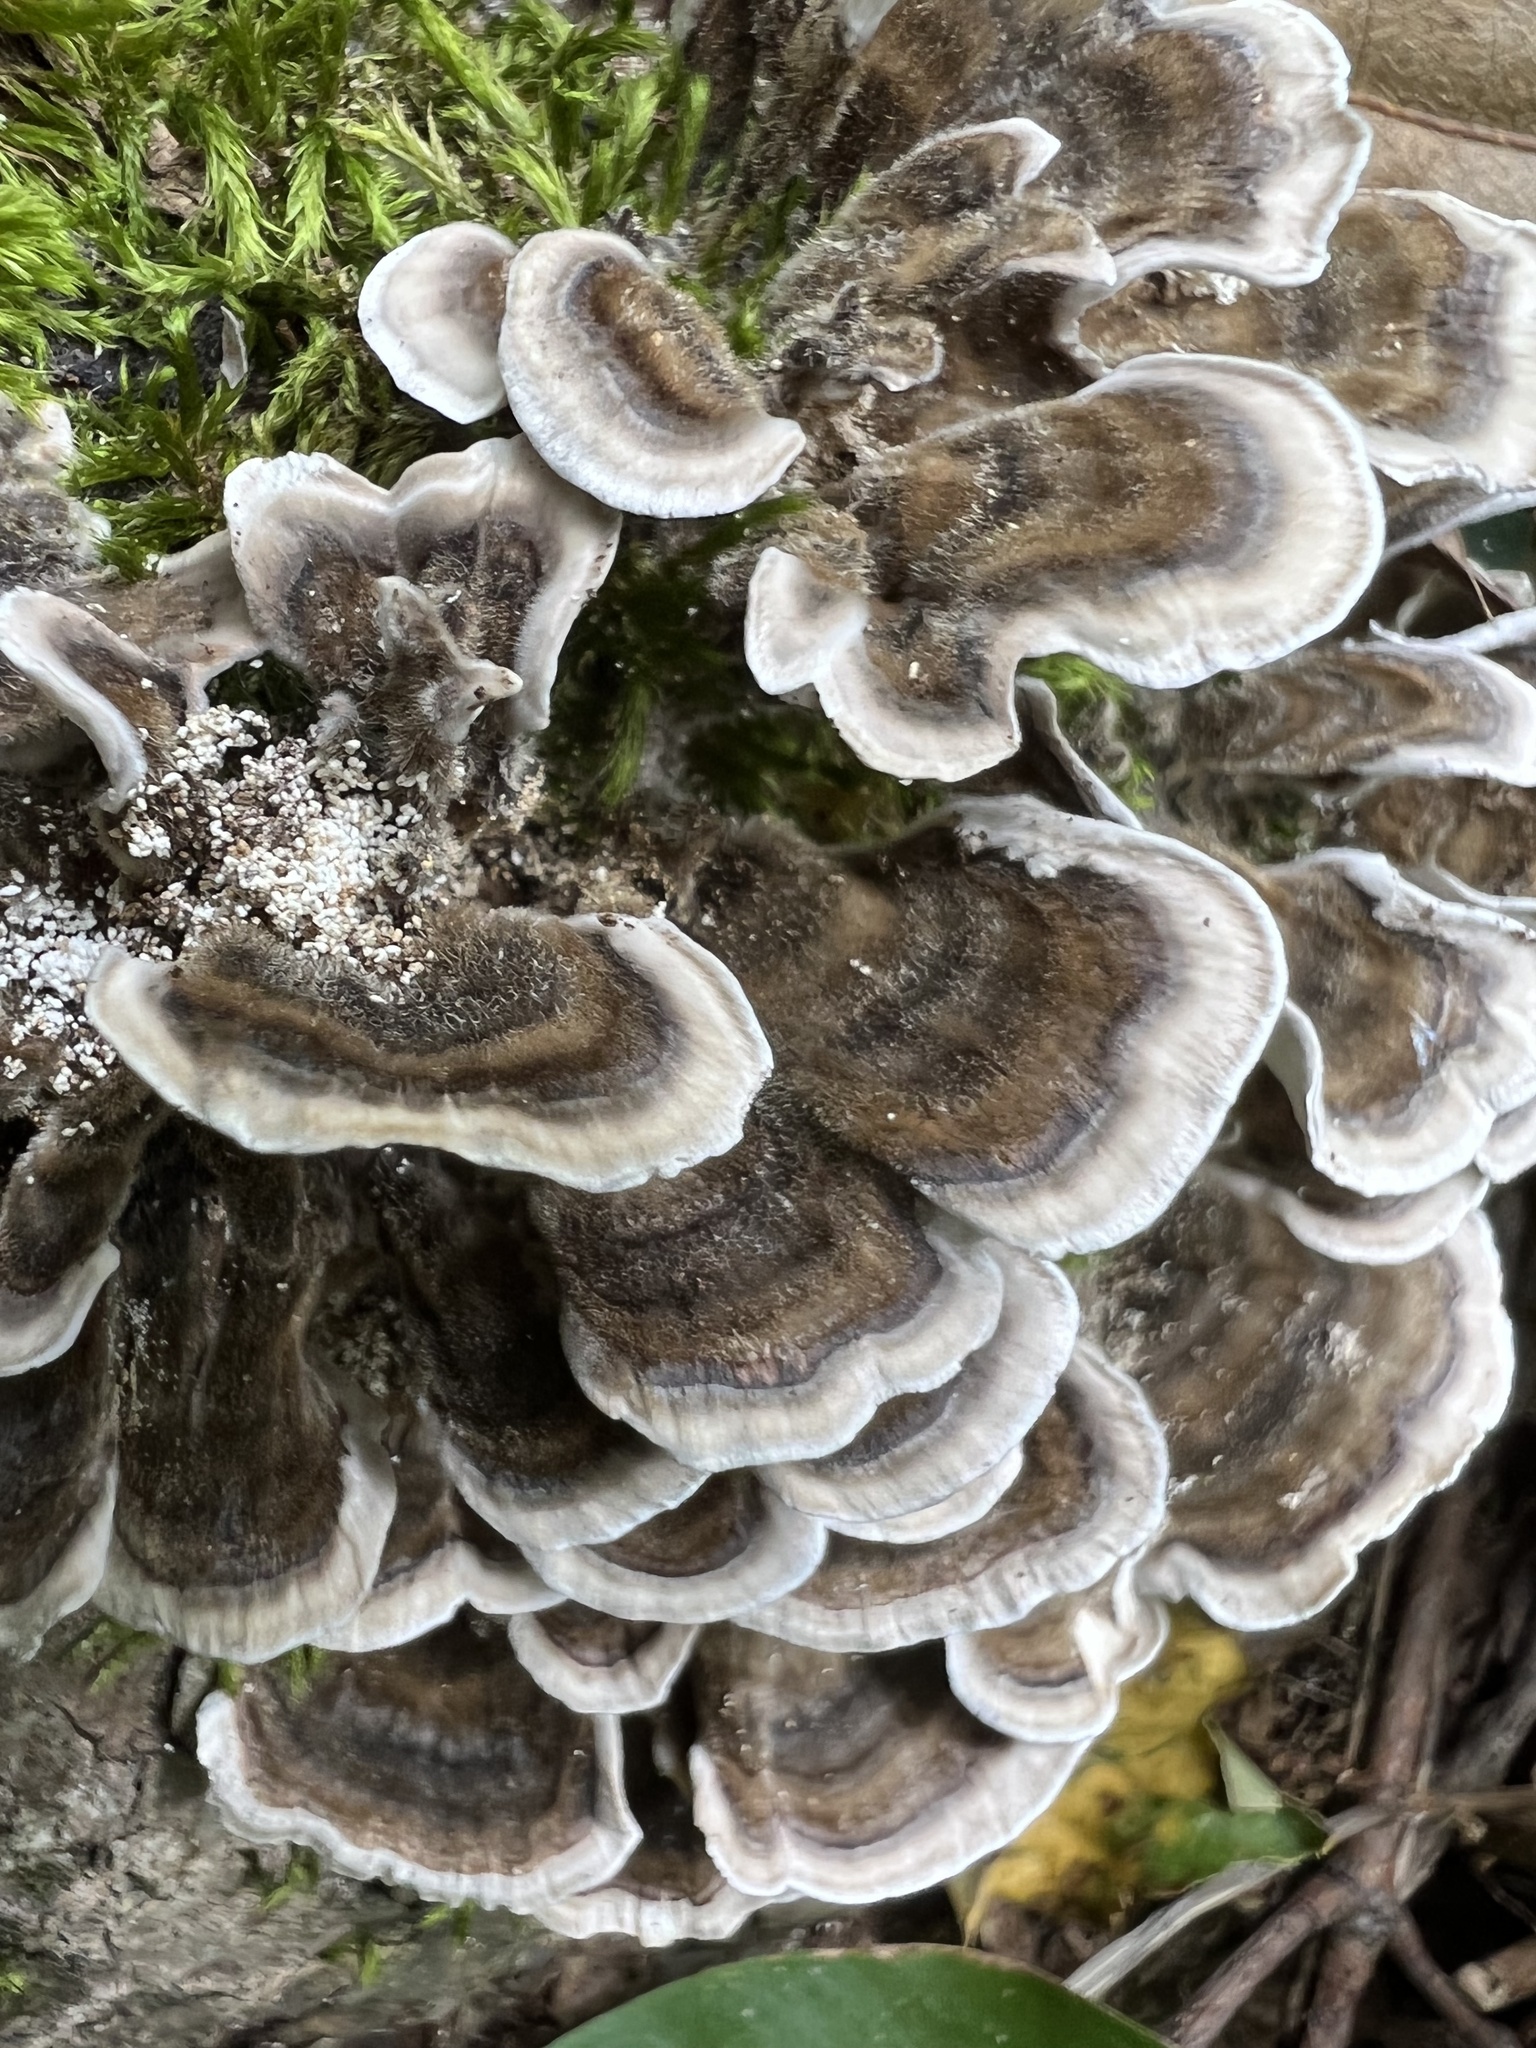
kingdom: Fungi
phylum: Basidiomycota
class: Agaricomycetes
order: Polyporales
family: Polyporaceae
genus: Trametes
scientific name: Trametes versicolor
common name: Turkeytail
